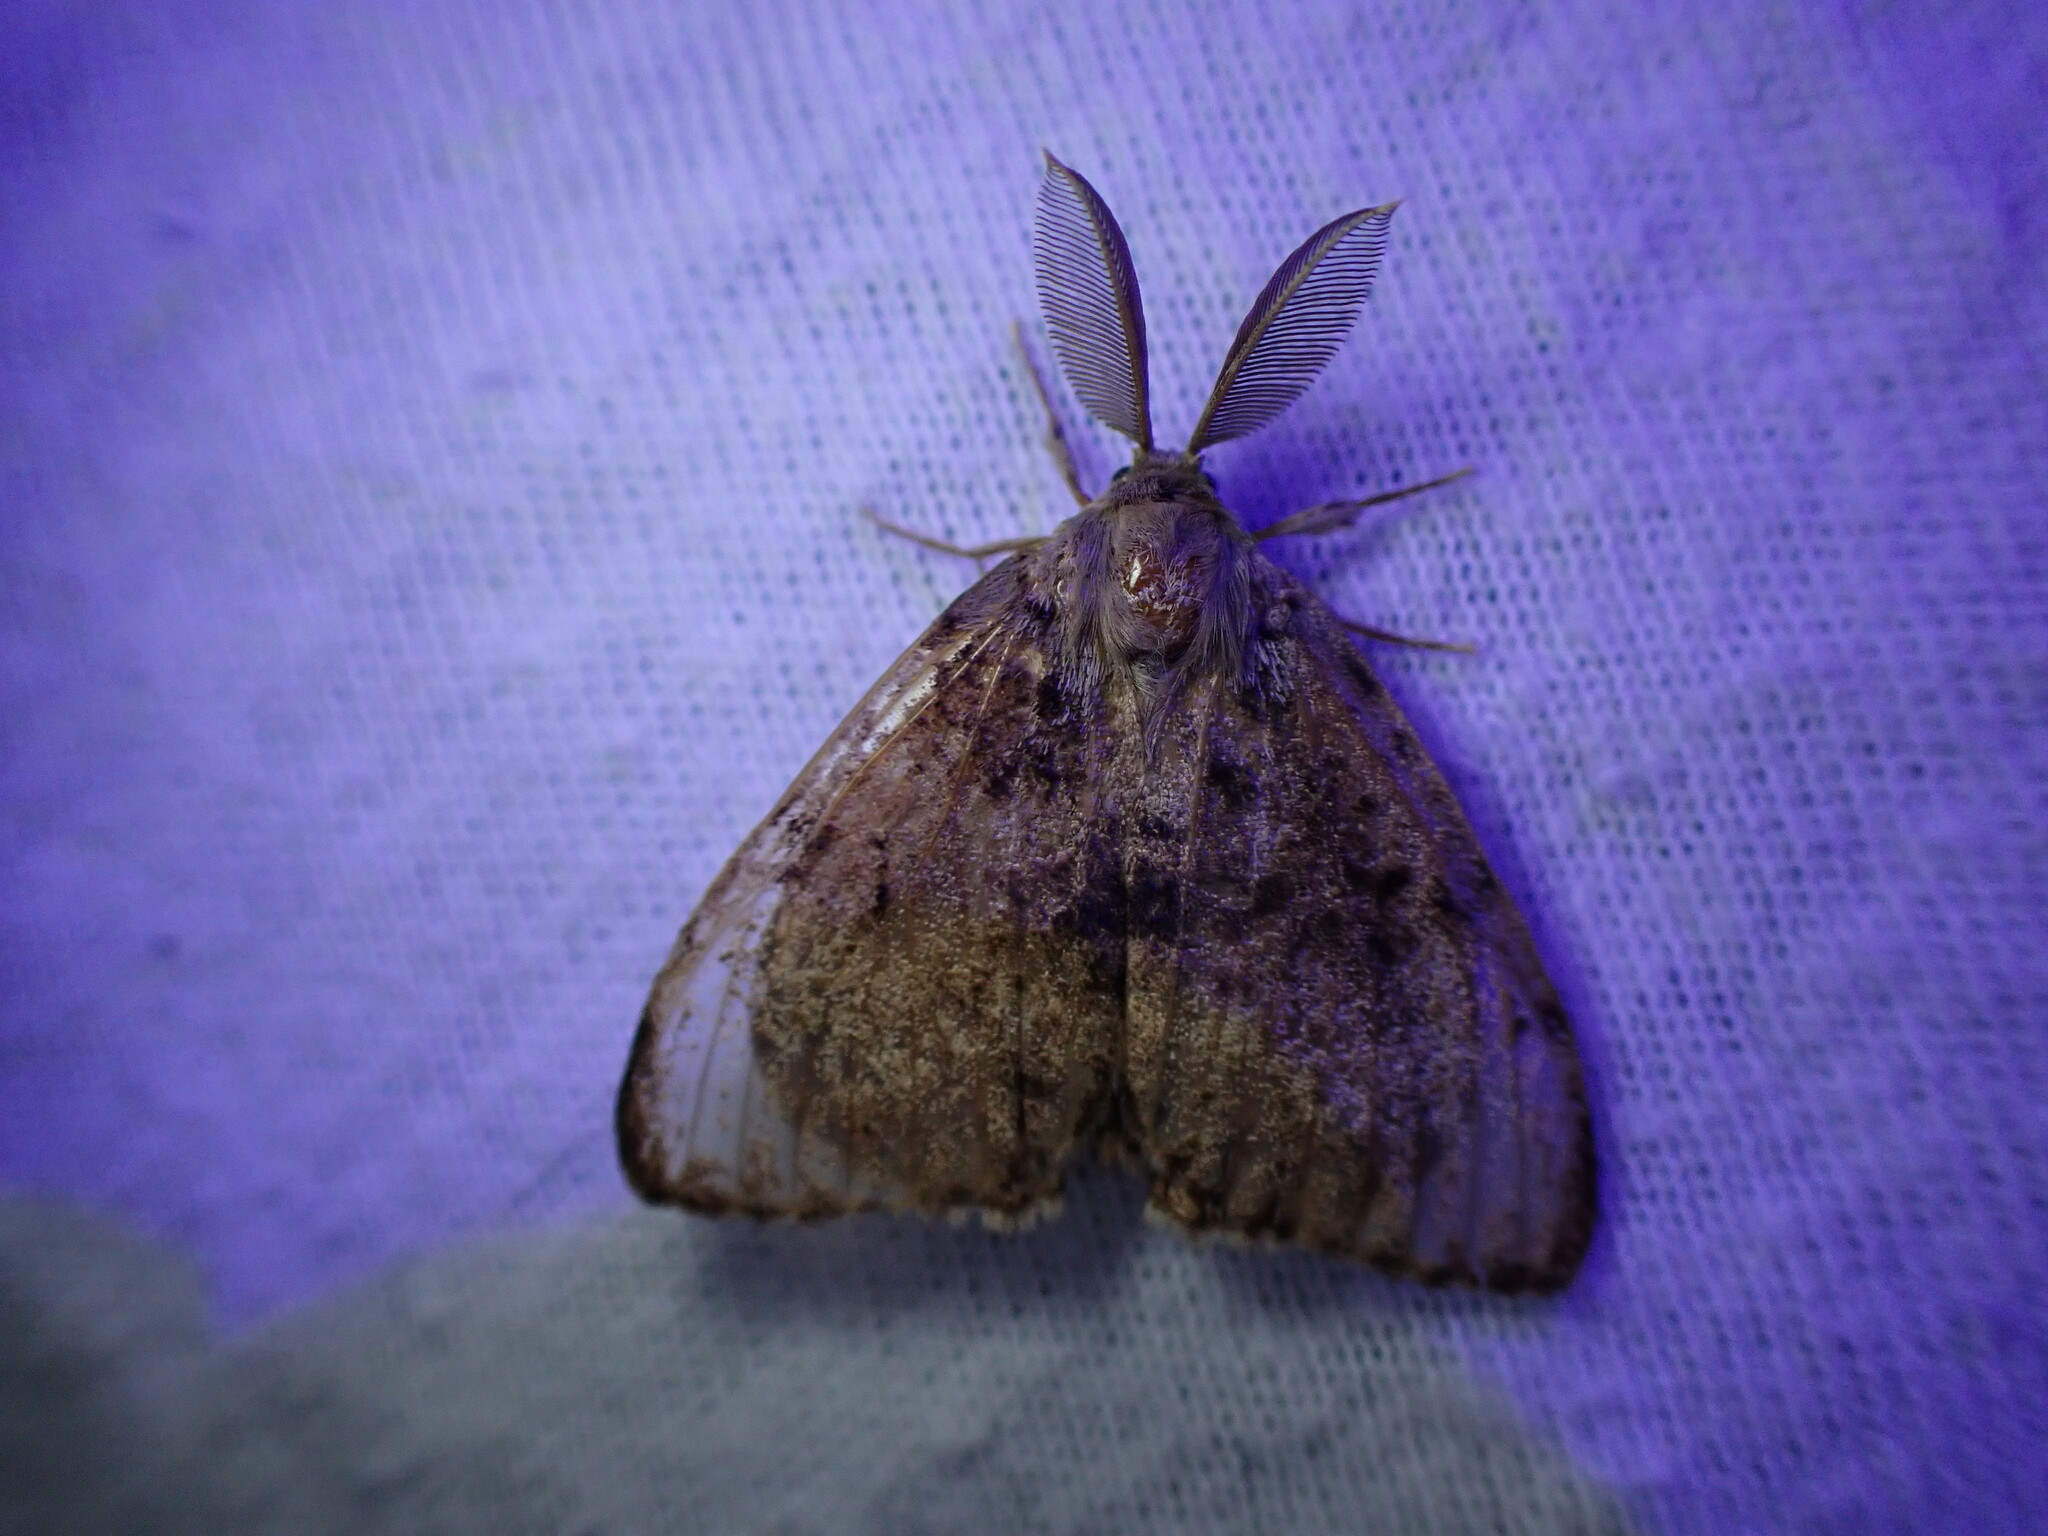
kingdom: Animalia
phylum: Arthropoda
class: Insecta
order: Lepidoptera
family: Erebidae
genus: Lymantria
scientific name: Lymantria dispar
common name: Gypsy moth
